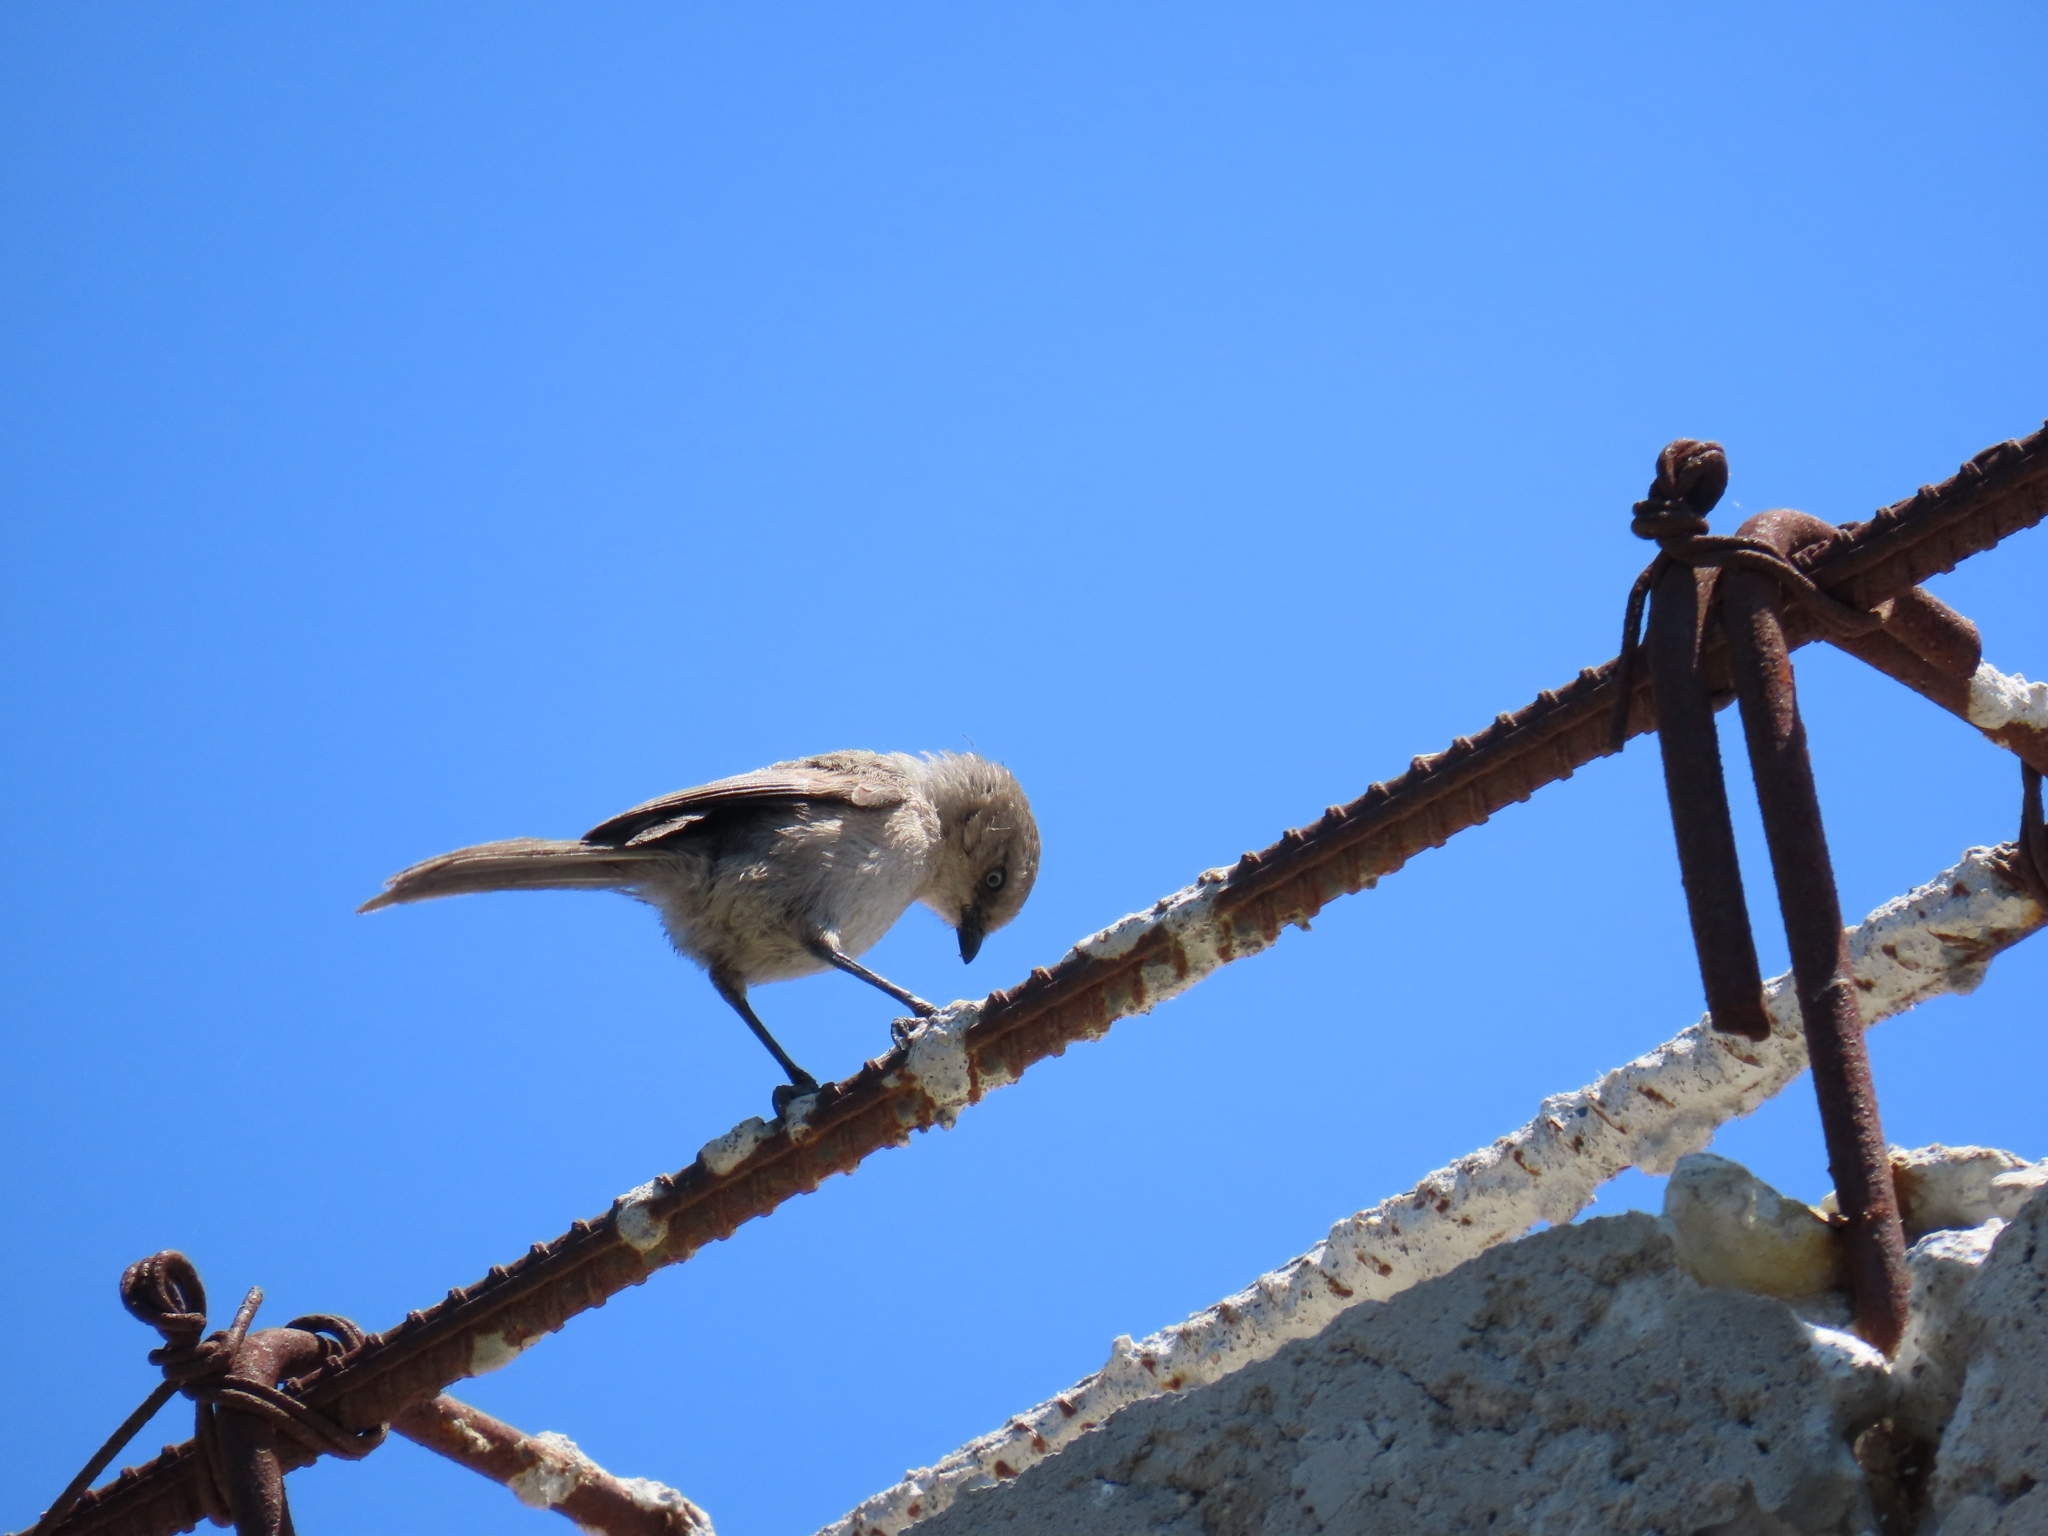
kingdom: Animalia
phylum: Chordata
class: Aves
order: Passeriformes
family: Aegithalidae
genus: Psaltriparus
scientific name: Psaltriparus minimus
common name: American bushtit
